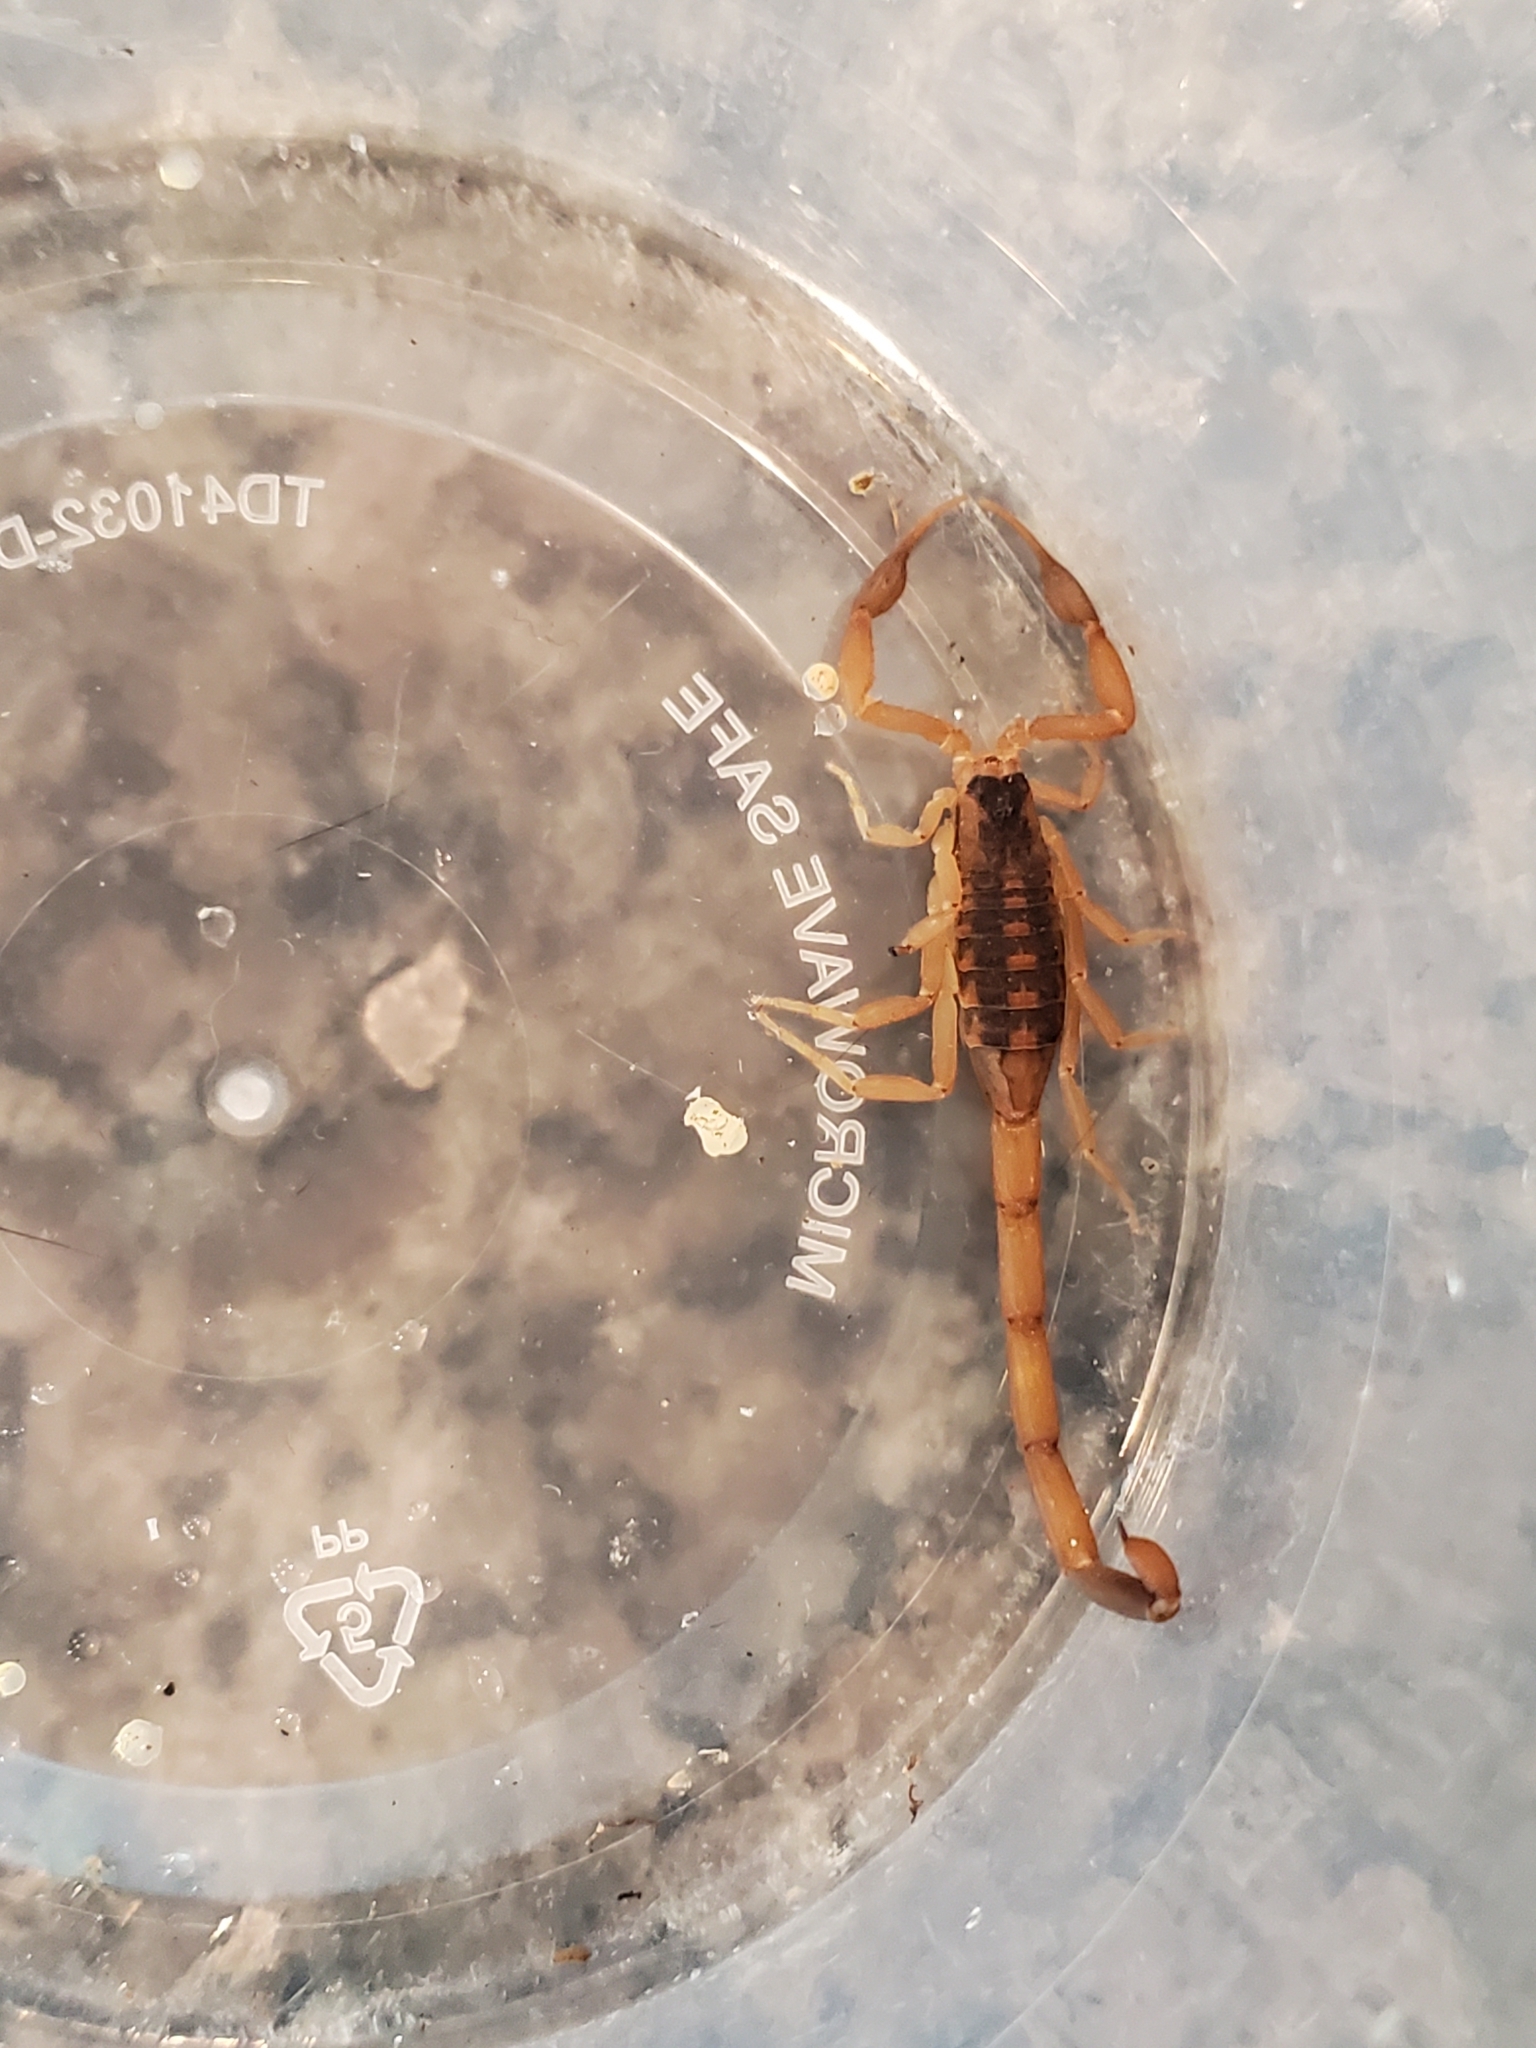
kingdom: Animalia
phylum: Arthropoda
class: Arachnida
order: Scorpiones
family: Buthidae
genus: Centruroides
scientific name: Centruroides vittatus
